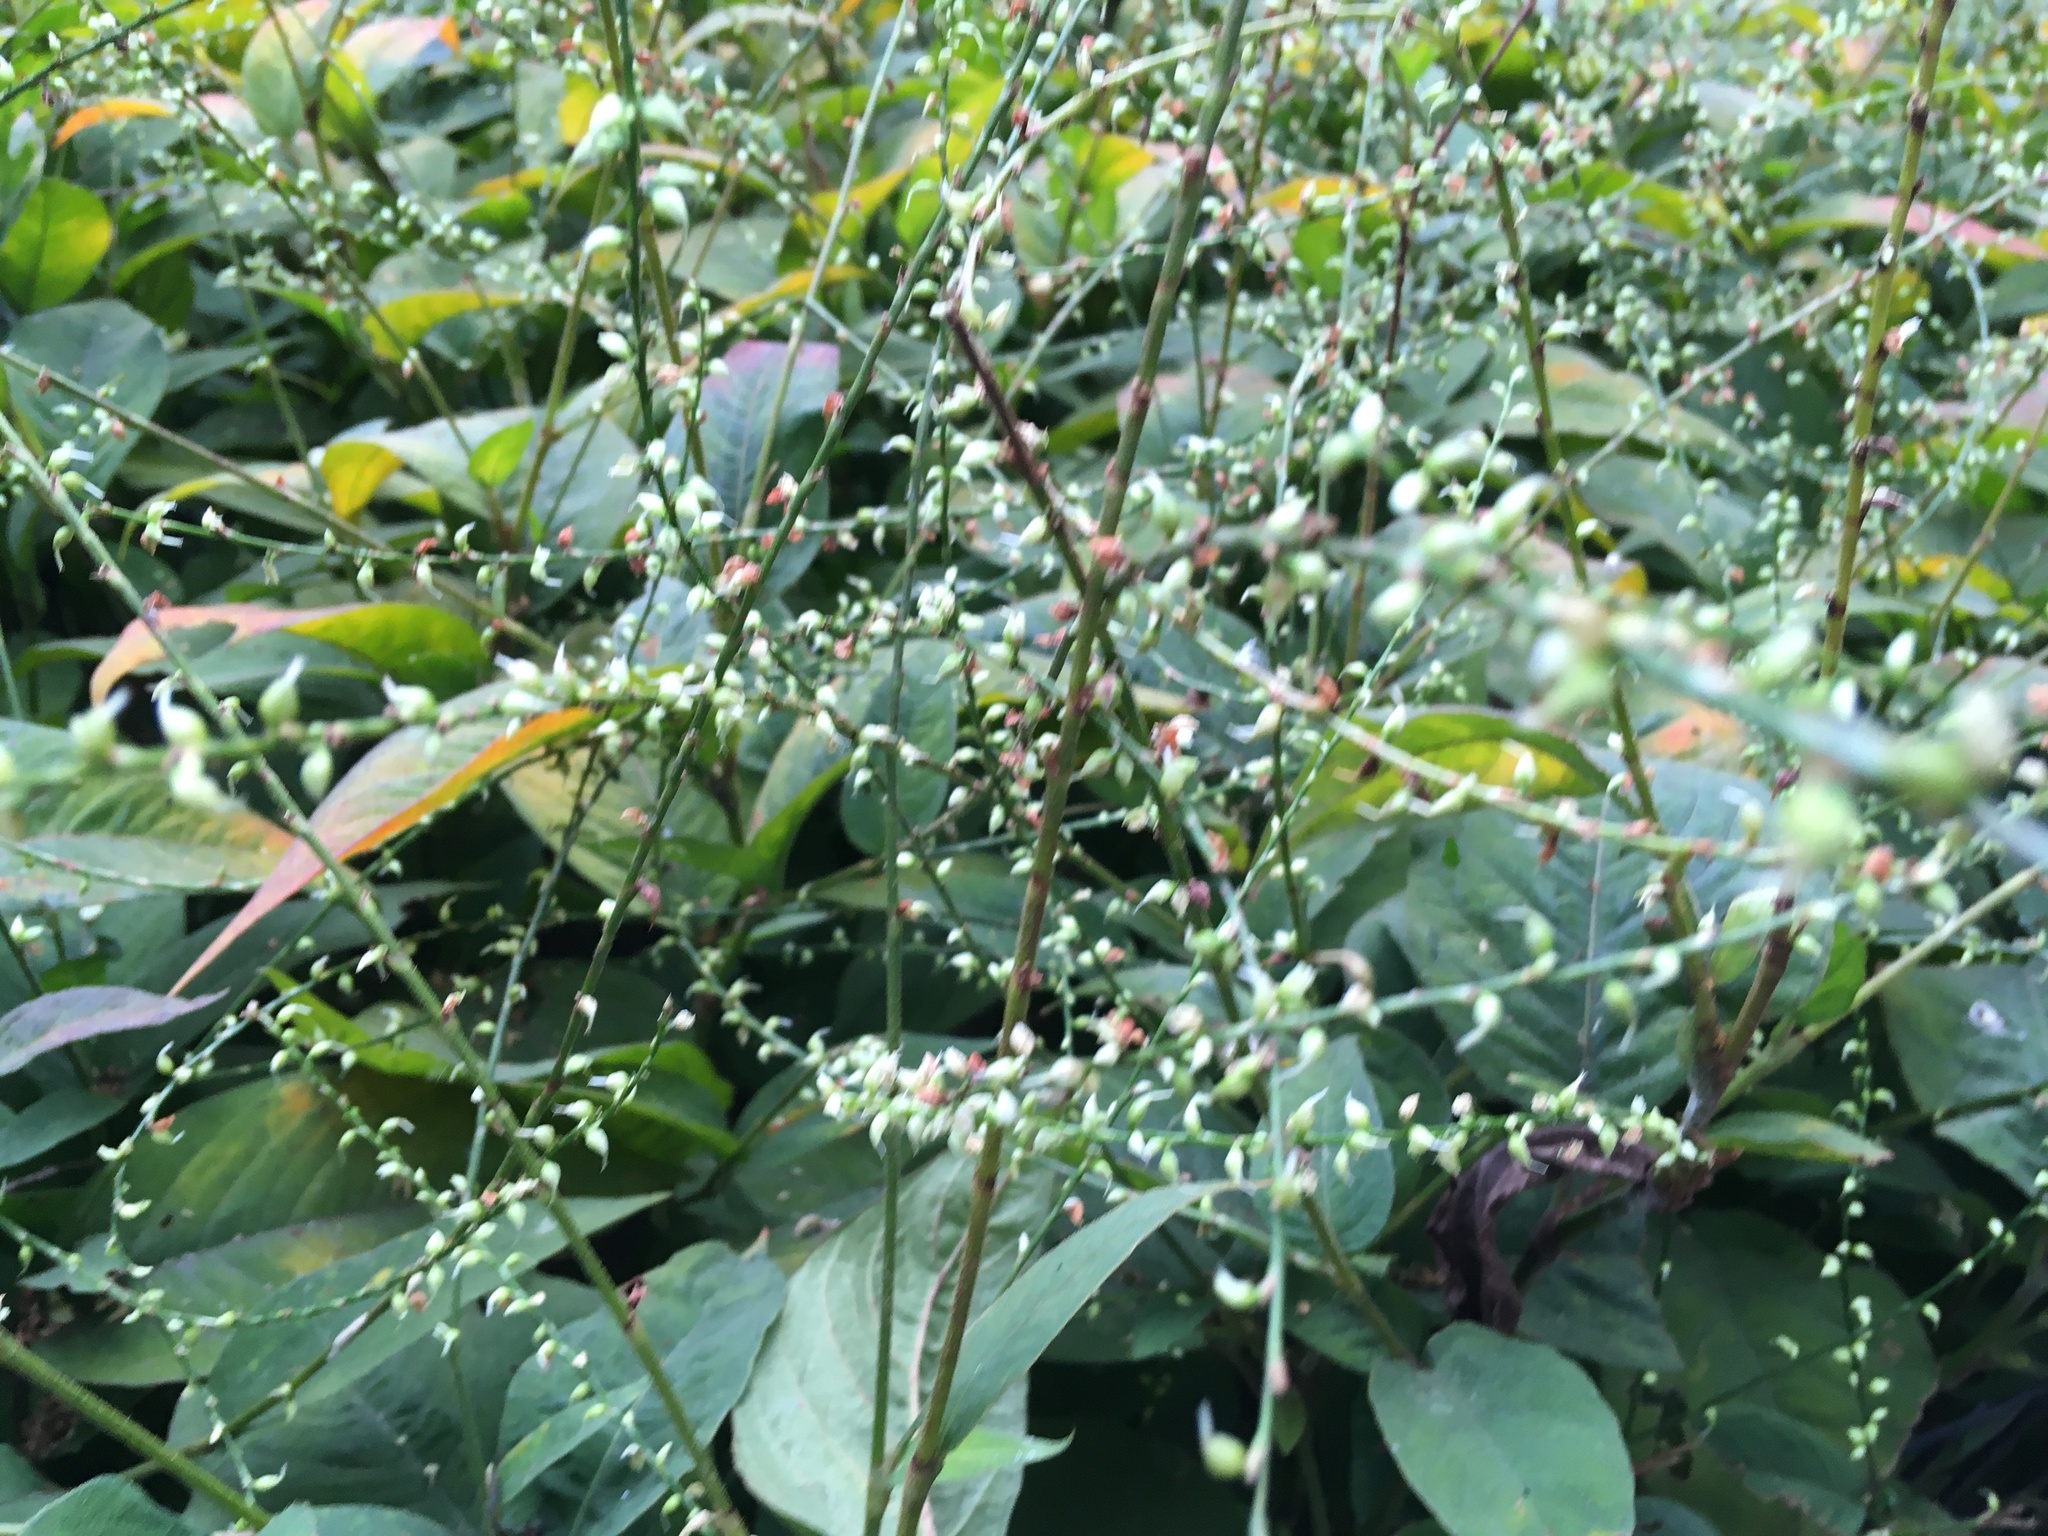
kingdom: Plantae
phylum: Tracheophyta
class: Magnoliopsida
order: Caryophyllales
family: Polygonaceae
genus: Persicaria
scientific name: Persicaria virginiana
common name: Jumpseed
